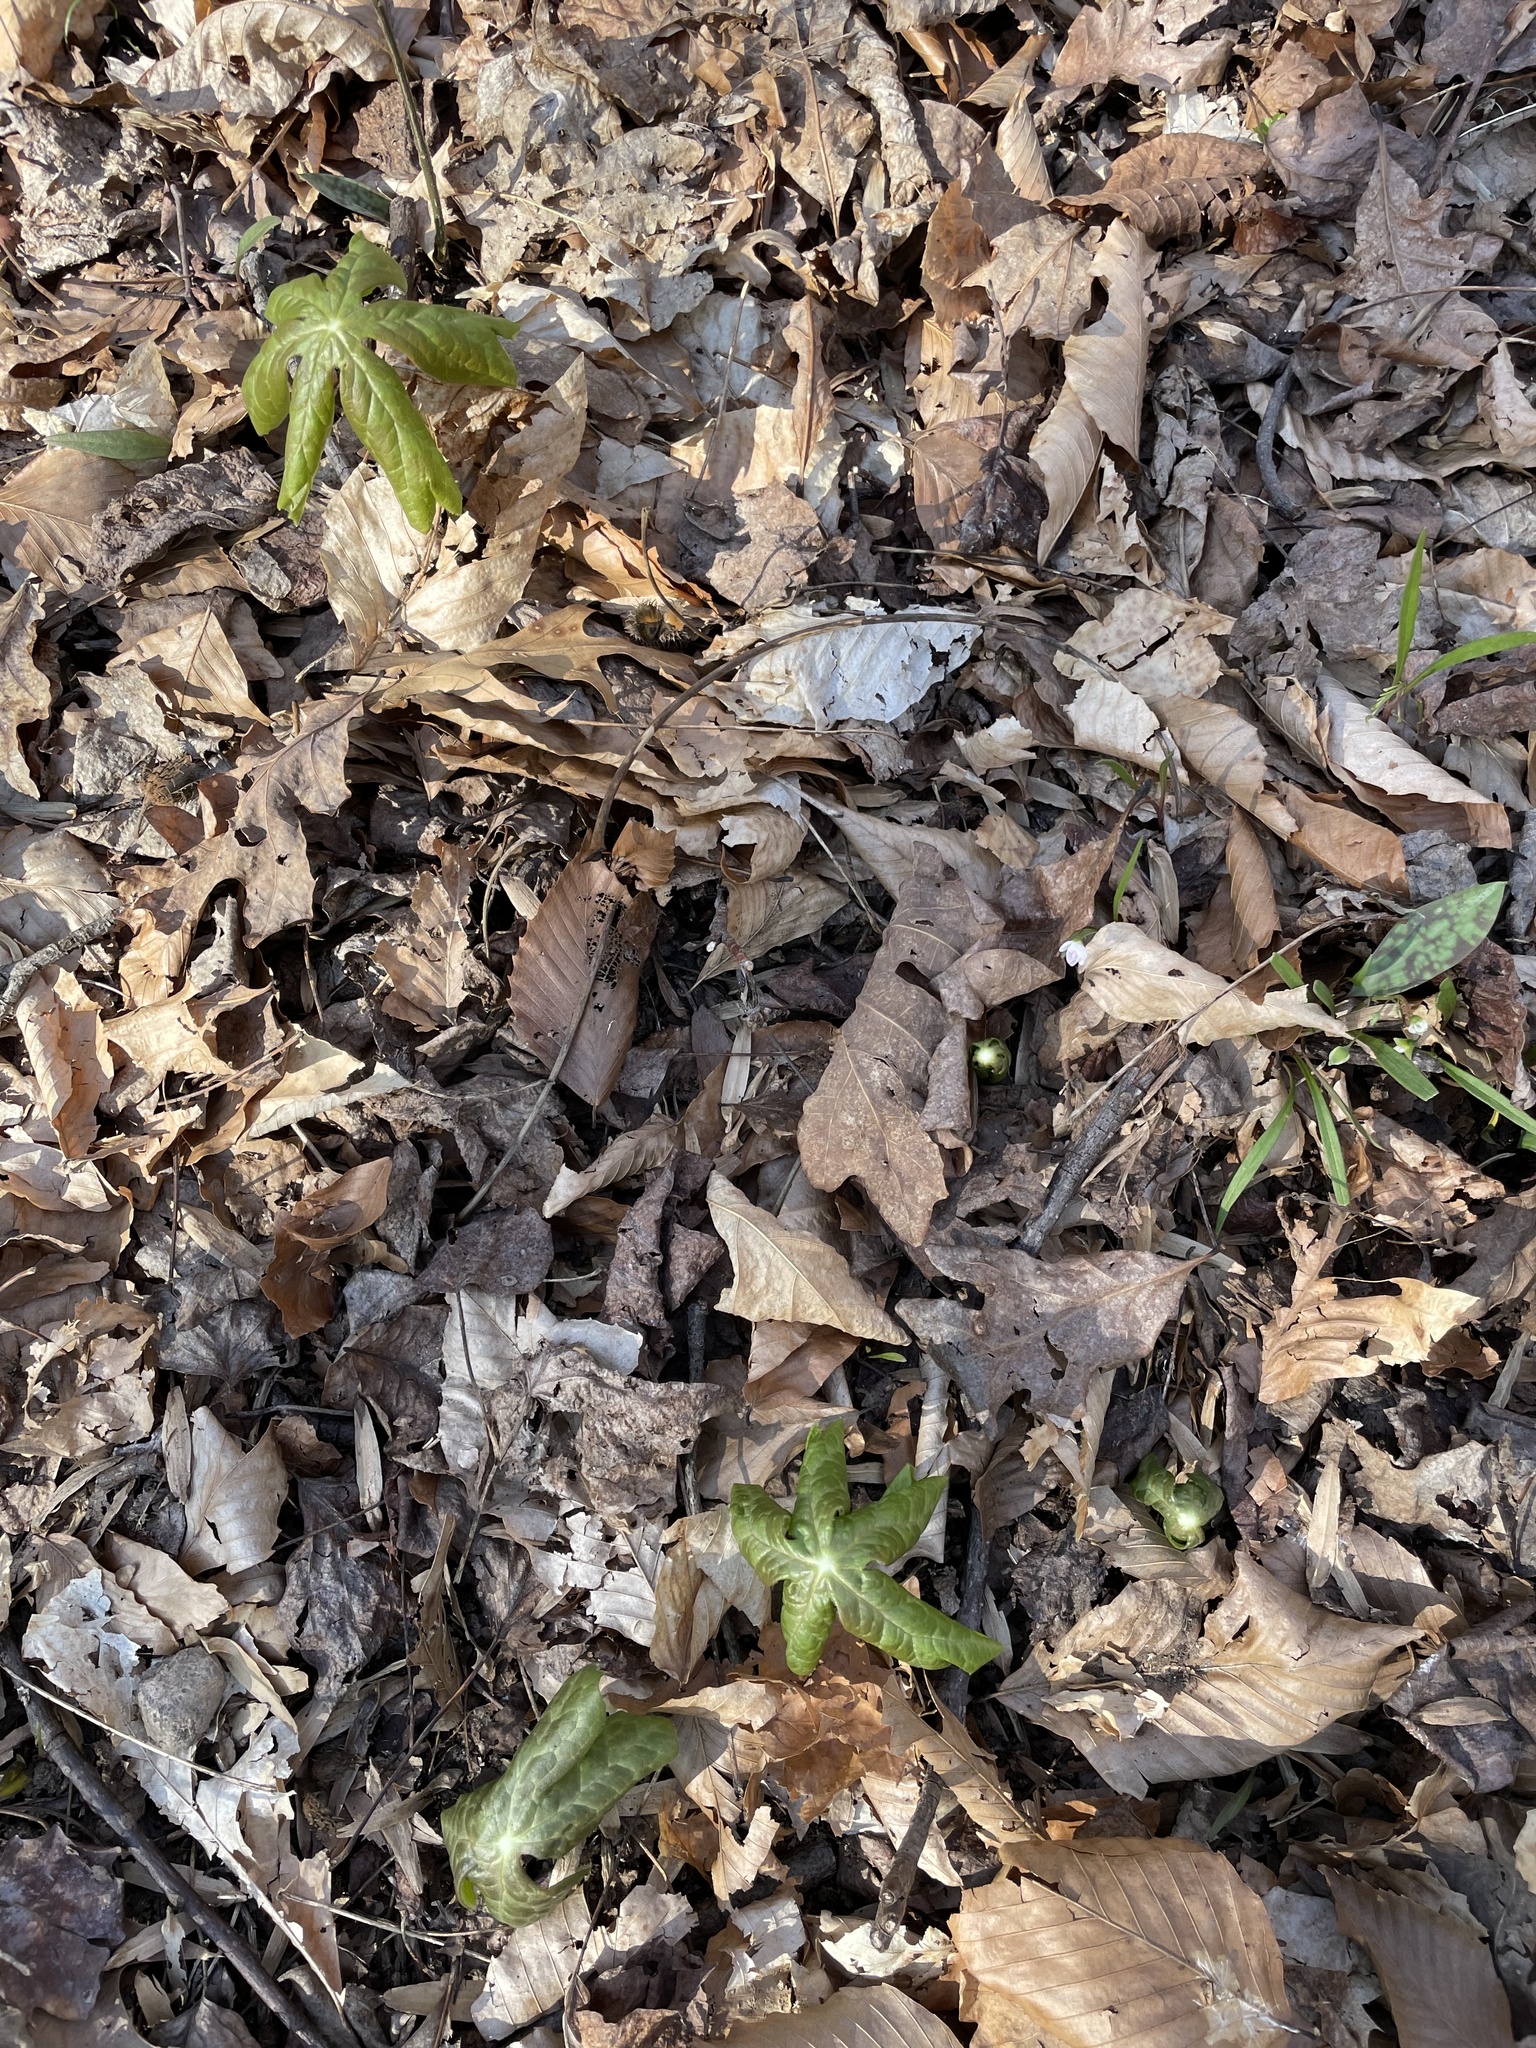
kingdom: Plantae
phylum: Tracheophyta
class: Magnoliopsida
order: Ranunculales
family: Berberidaceae
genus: Podophyllum
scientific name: Podophyllum peltatum
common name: Wild mandrake
